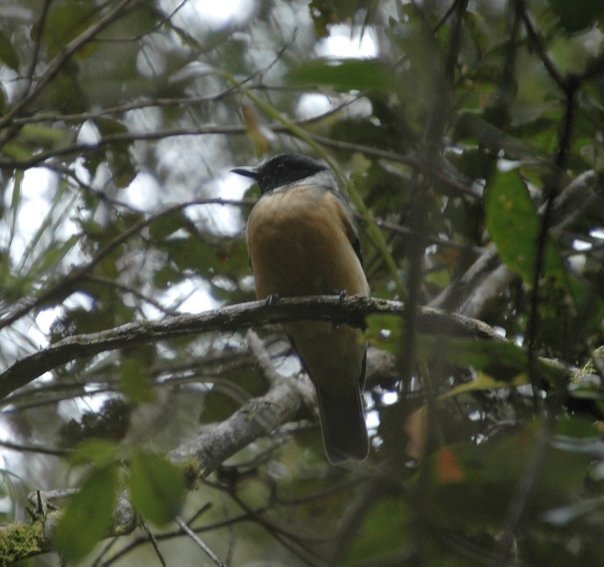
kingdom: Animalia
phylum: Chordata
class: Aves
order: Passeriformes
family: Vangidae
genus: Tylas
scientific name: Tylas eduardi
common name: Tylas vanga
